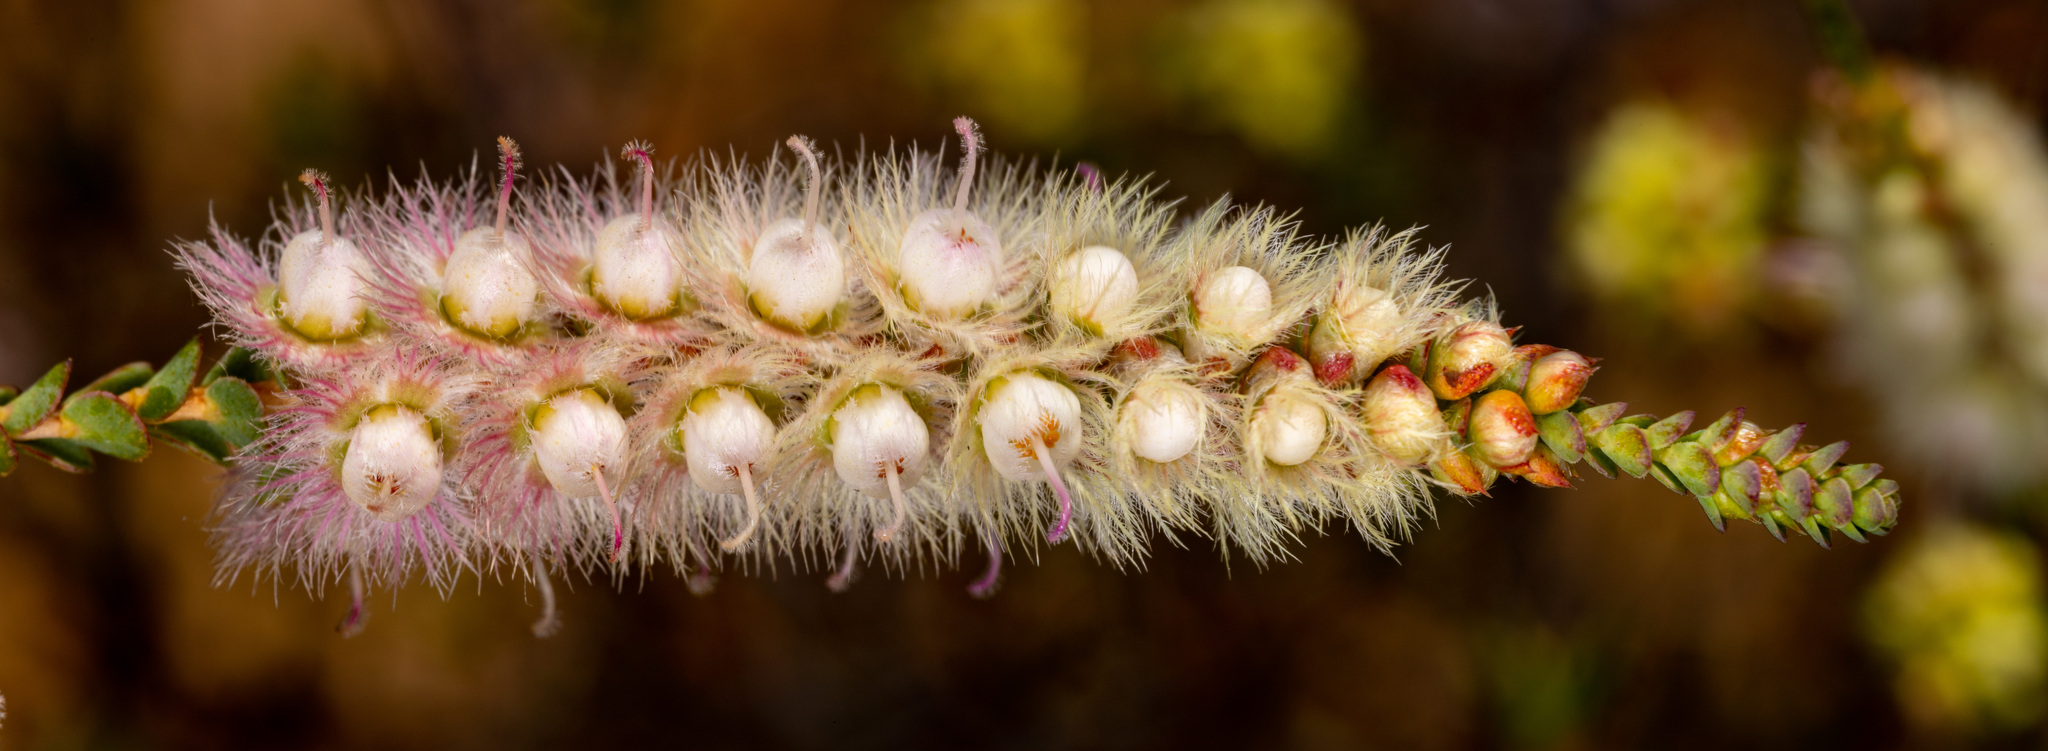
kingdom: Plantae
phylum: Tracheophyta
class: Magnoliopsida
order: Myrtales
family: Myrtaceae
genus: Verticordia
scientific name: Verticordia spicata
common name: Spike feather-flower
